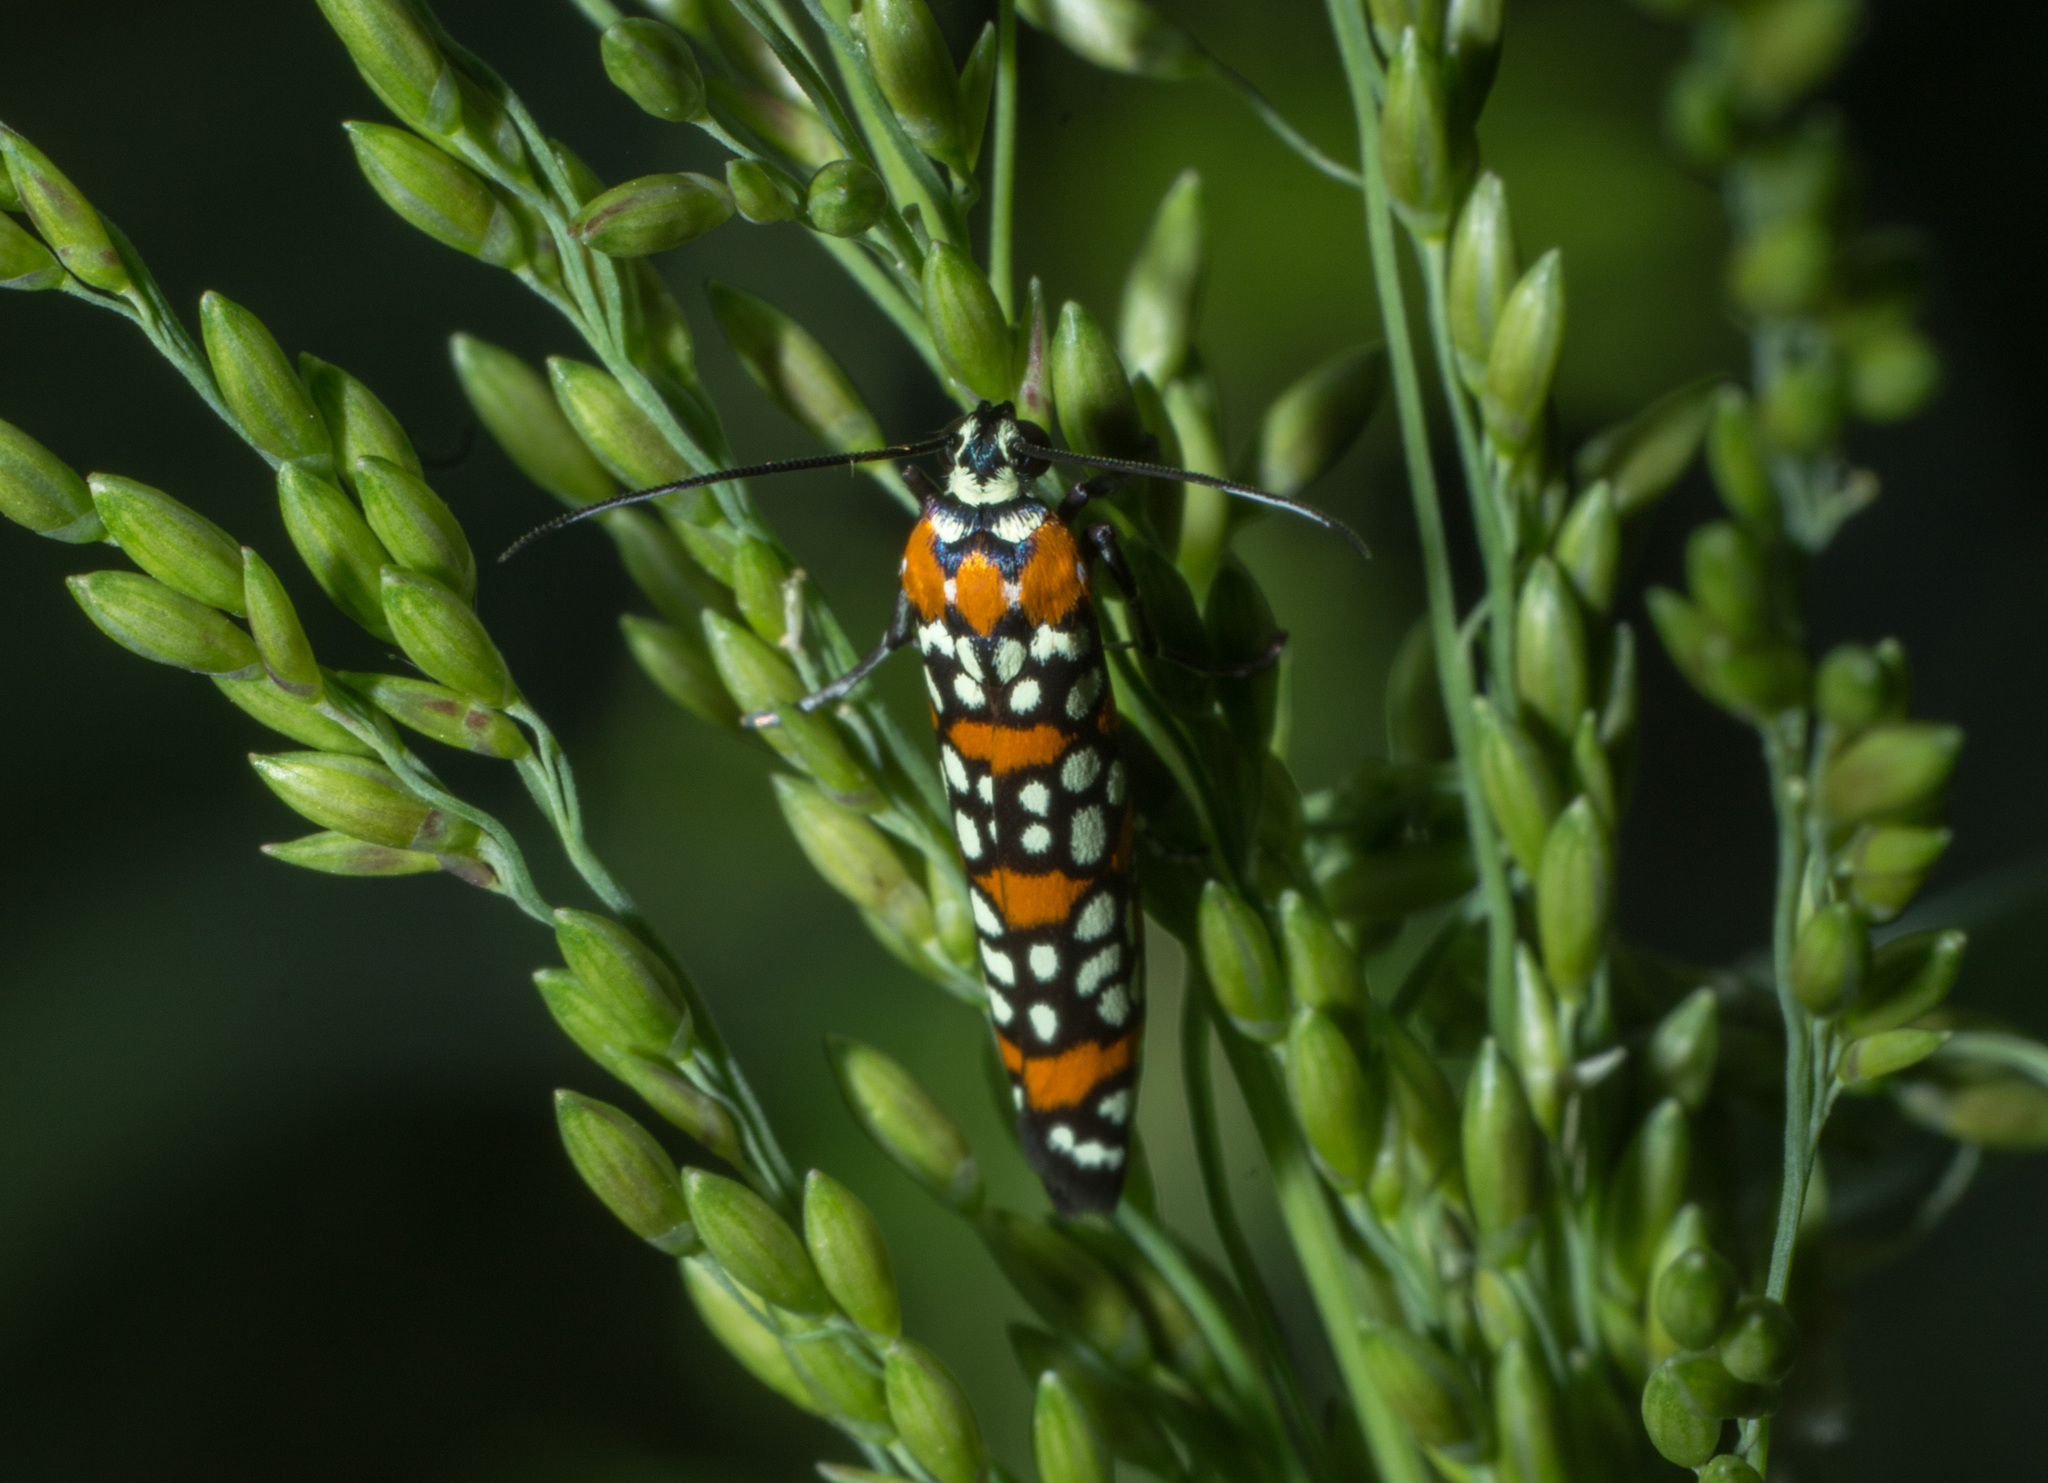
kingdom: Animalia
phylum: Arthropoda
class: Insecta
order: Lepidoptera
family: Attevidae
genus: Atteva
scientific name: Atteva punctella
